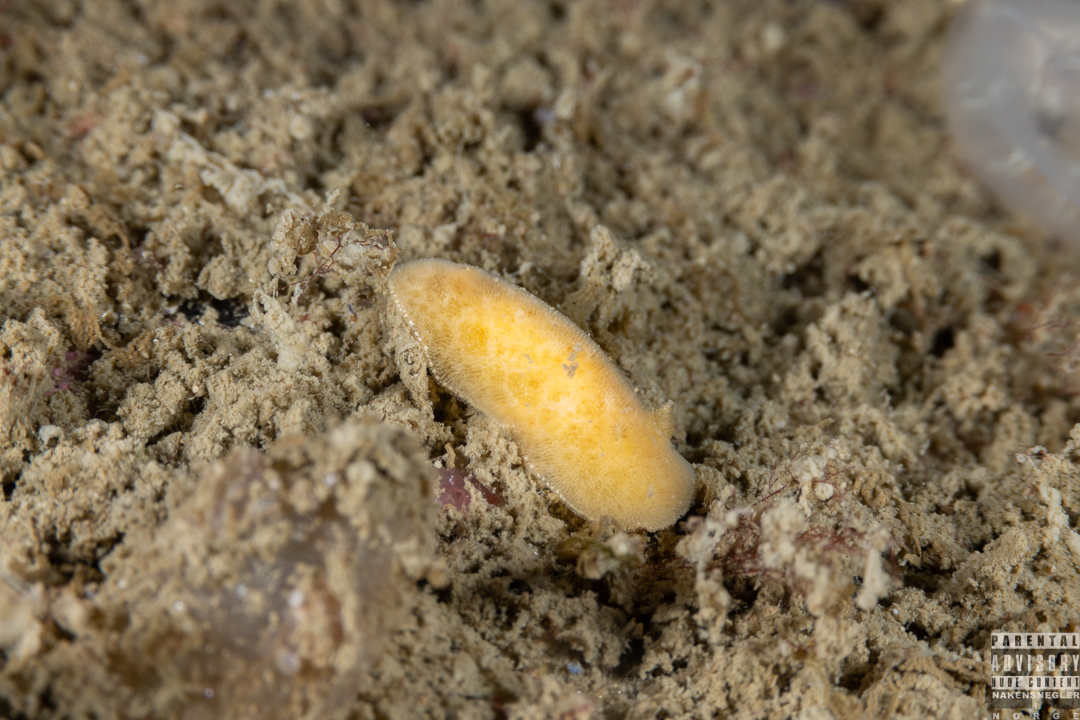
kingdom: Animalia
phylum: Mollusca
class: Gastropoda
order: Nudibranchia
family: Discodorididae
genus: Jorunna
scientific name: Jorunna tomentosa
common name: Grey sea slug
